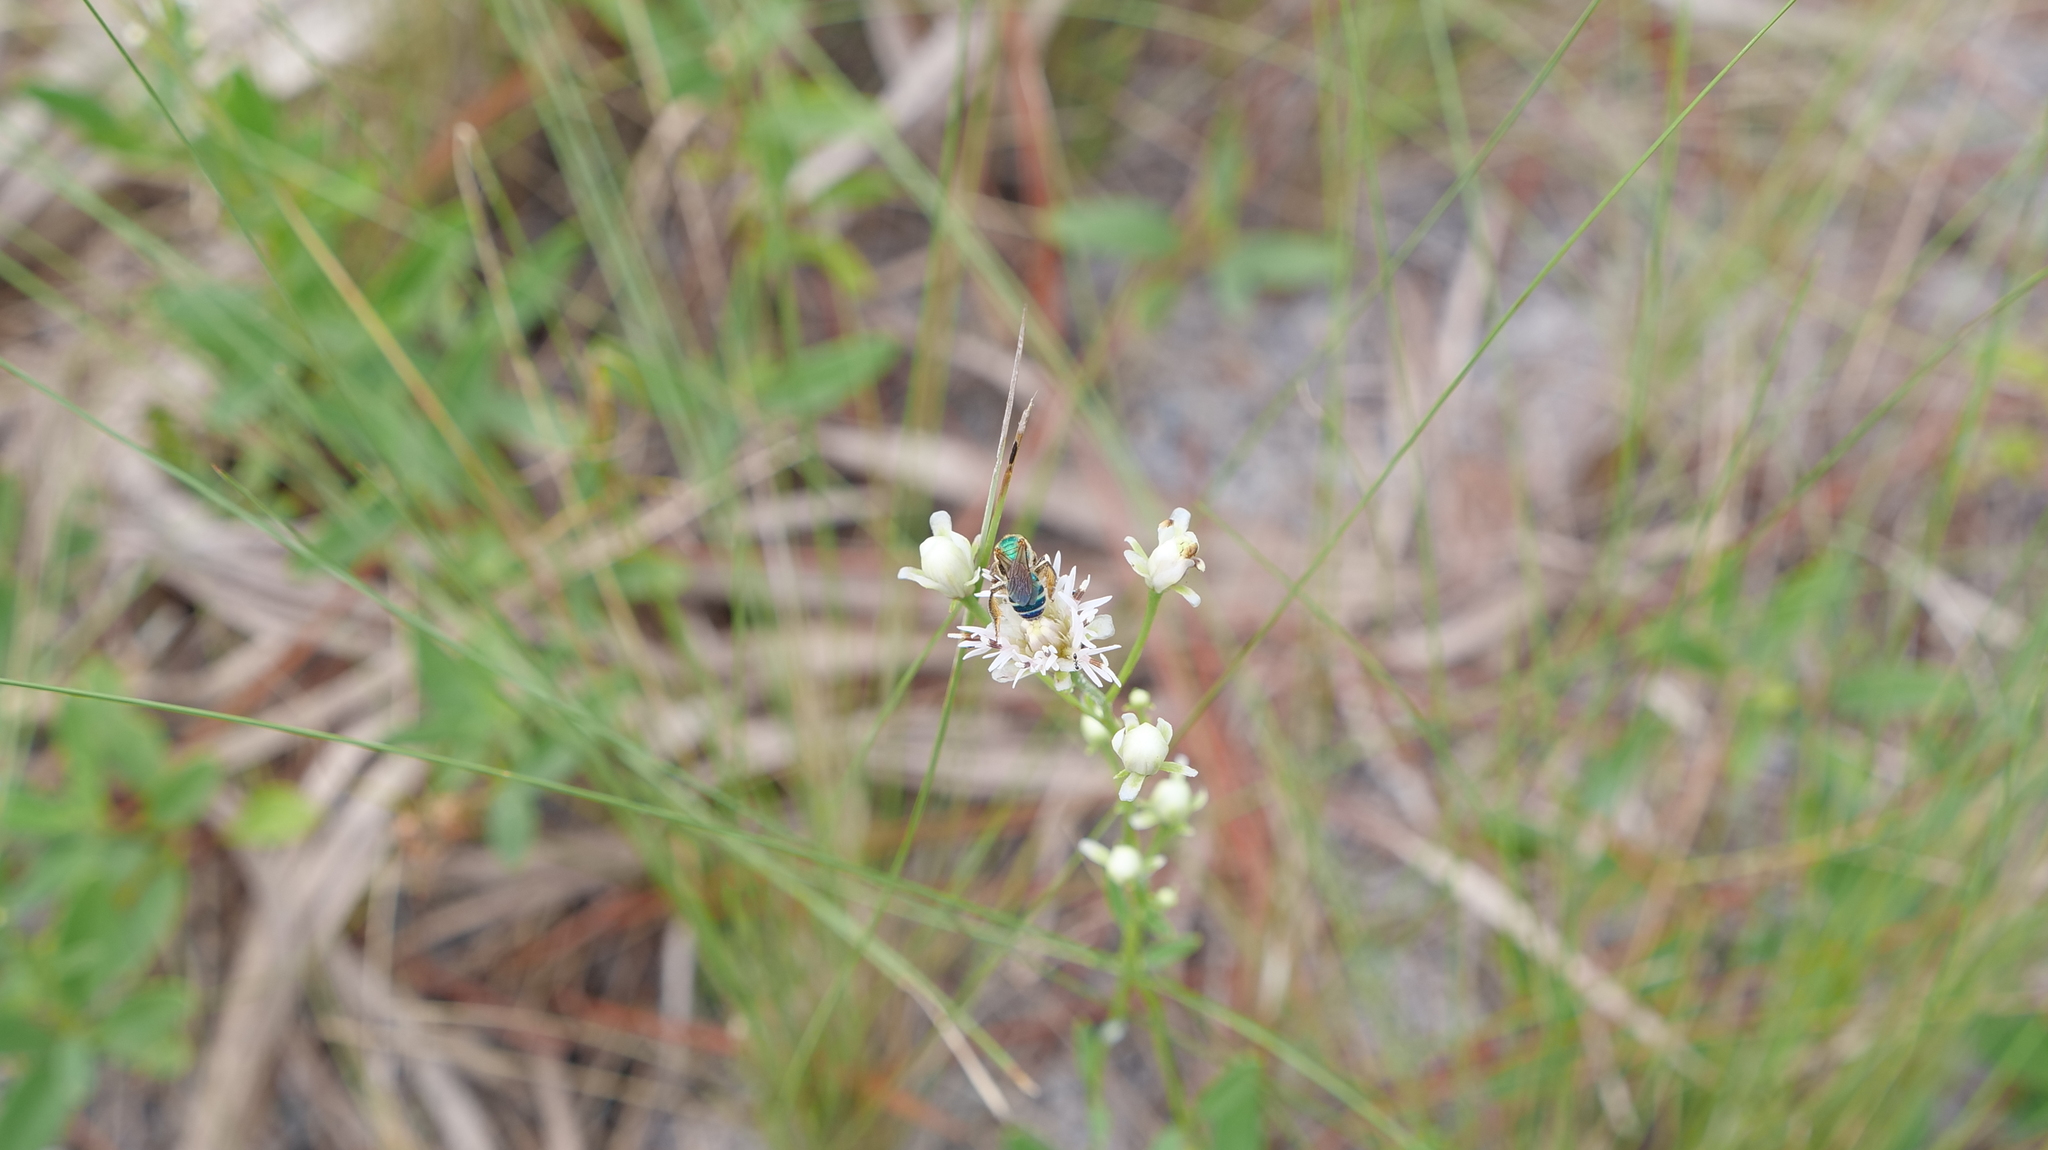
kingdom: Animalia
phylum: Arthropoda
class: Insecta
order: Hymenoptera
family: Halictidae
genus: Agapostemon
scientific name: Agapostemon splendens
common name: Brown-winged striped sweat bee
